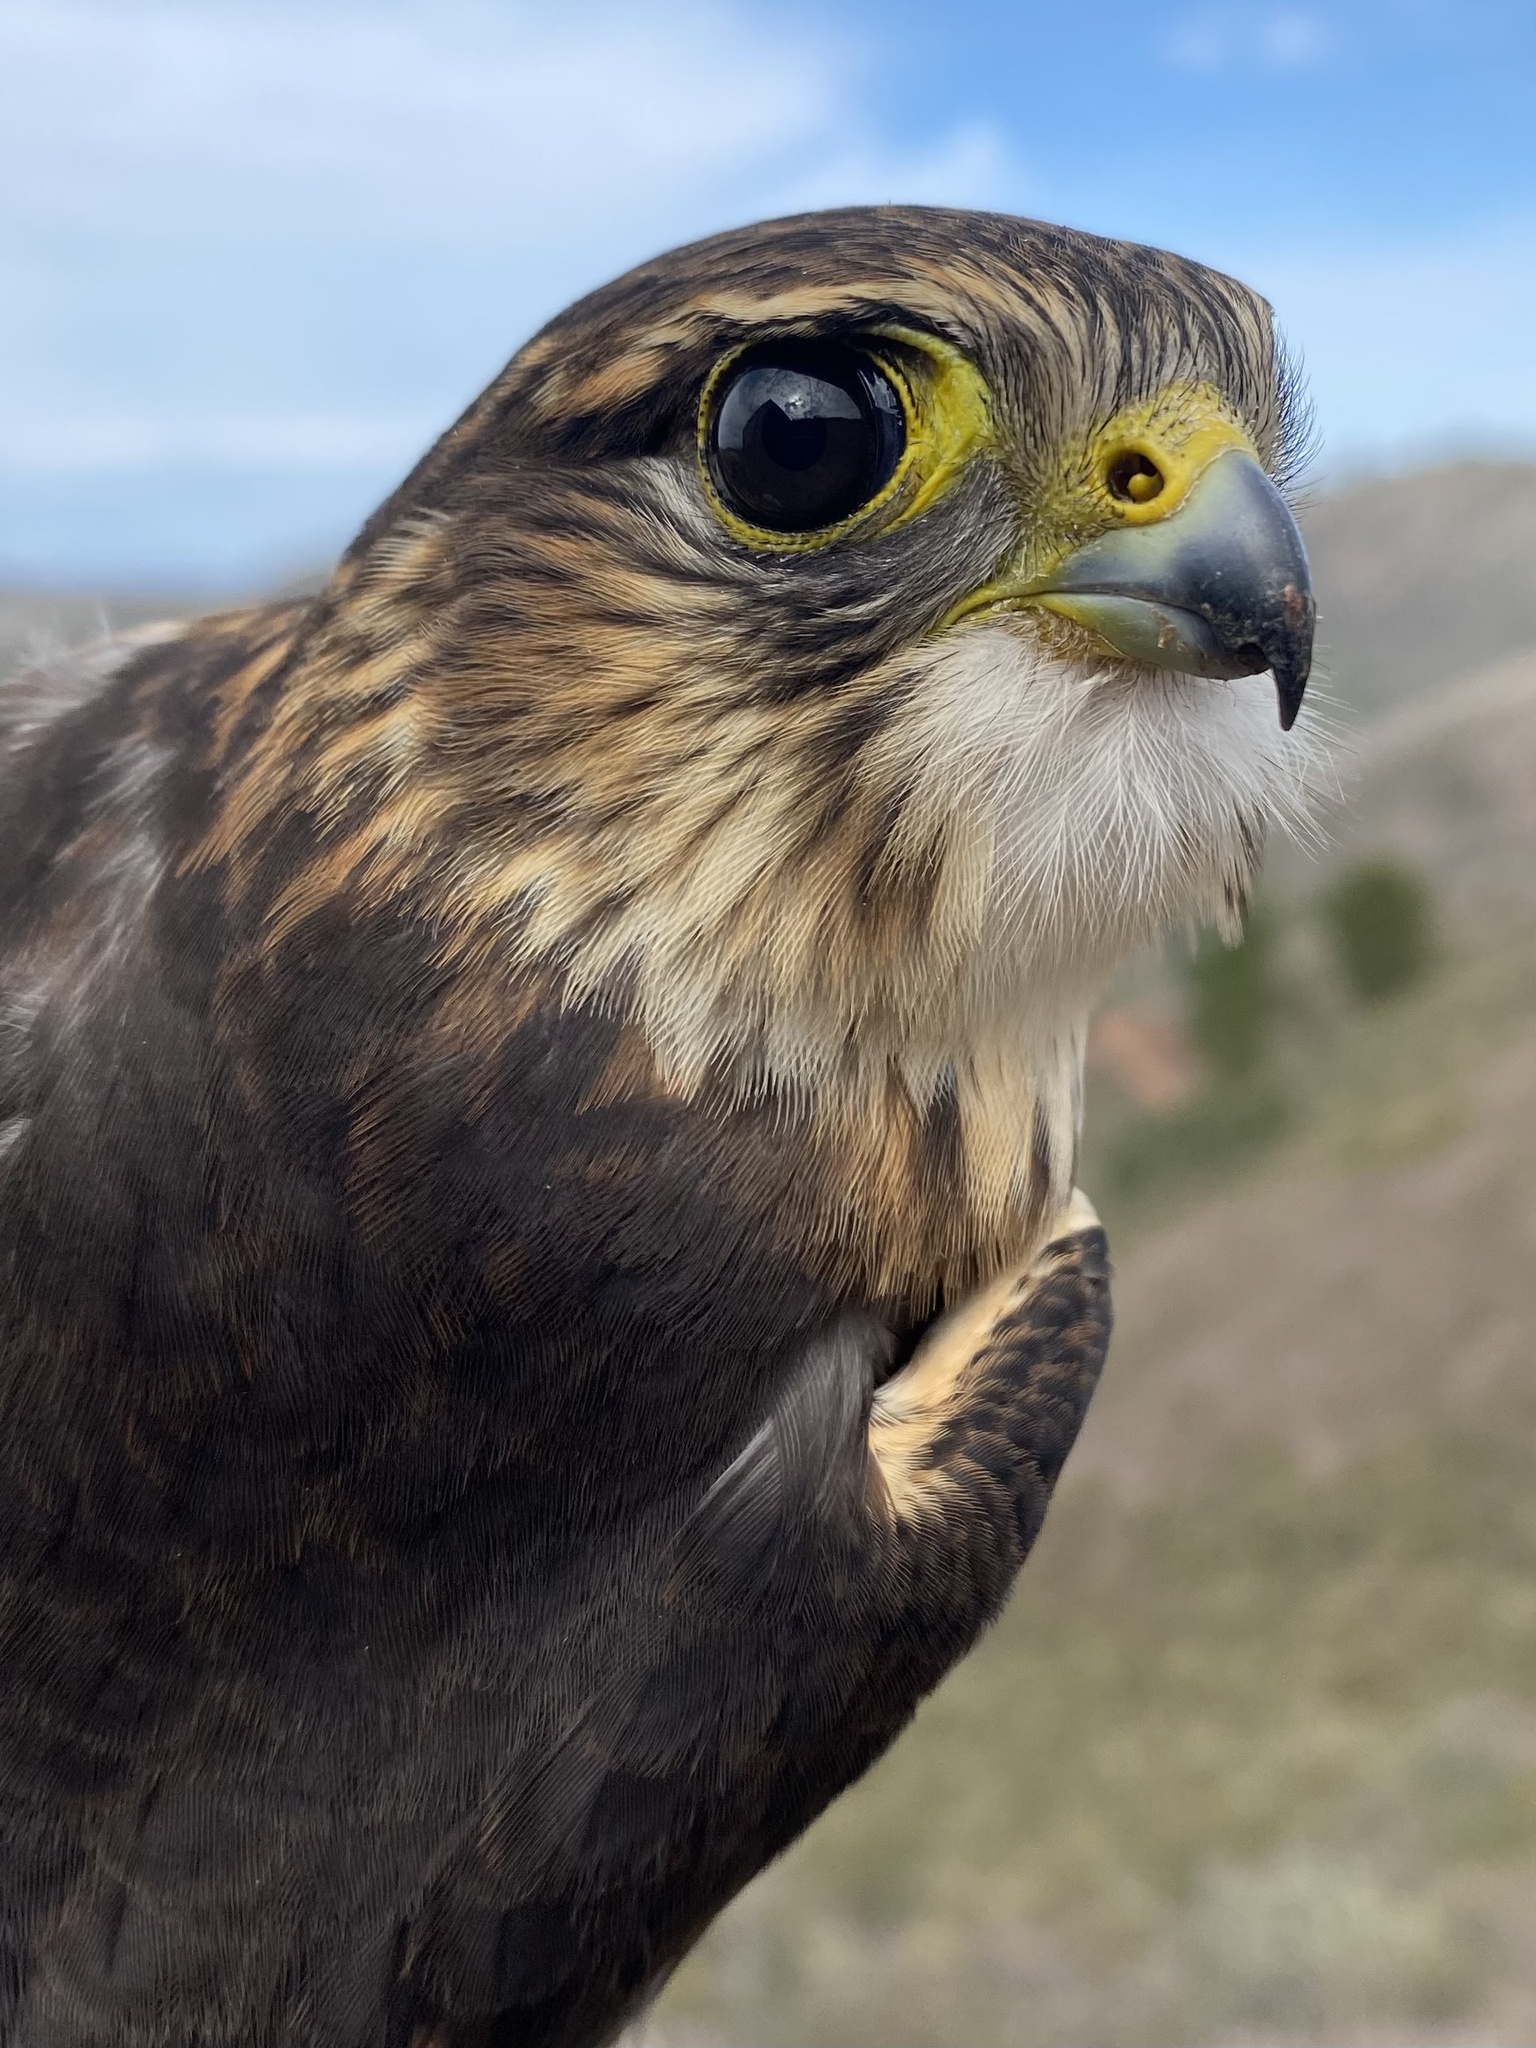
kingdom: Animalia
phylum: Chordata
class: Aves
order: Falconiformes
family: Falconidae
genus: Falco
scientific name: Falco columbarius
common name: Merlin
